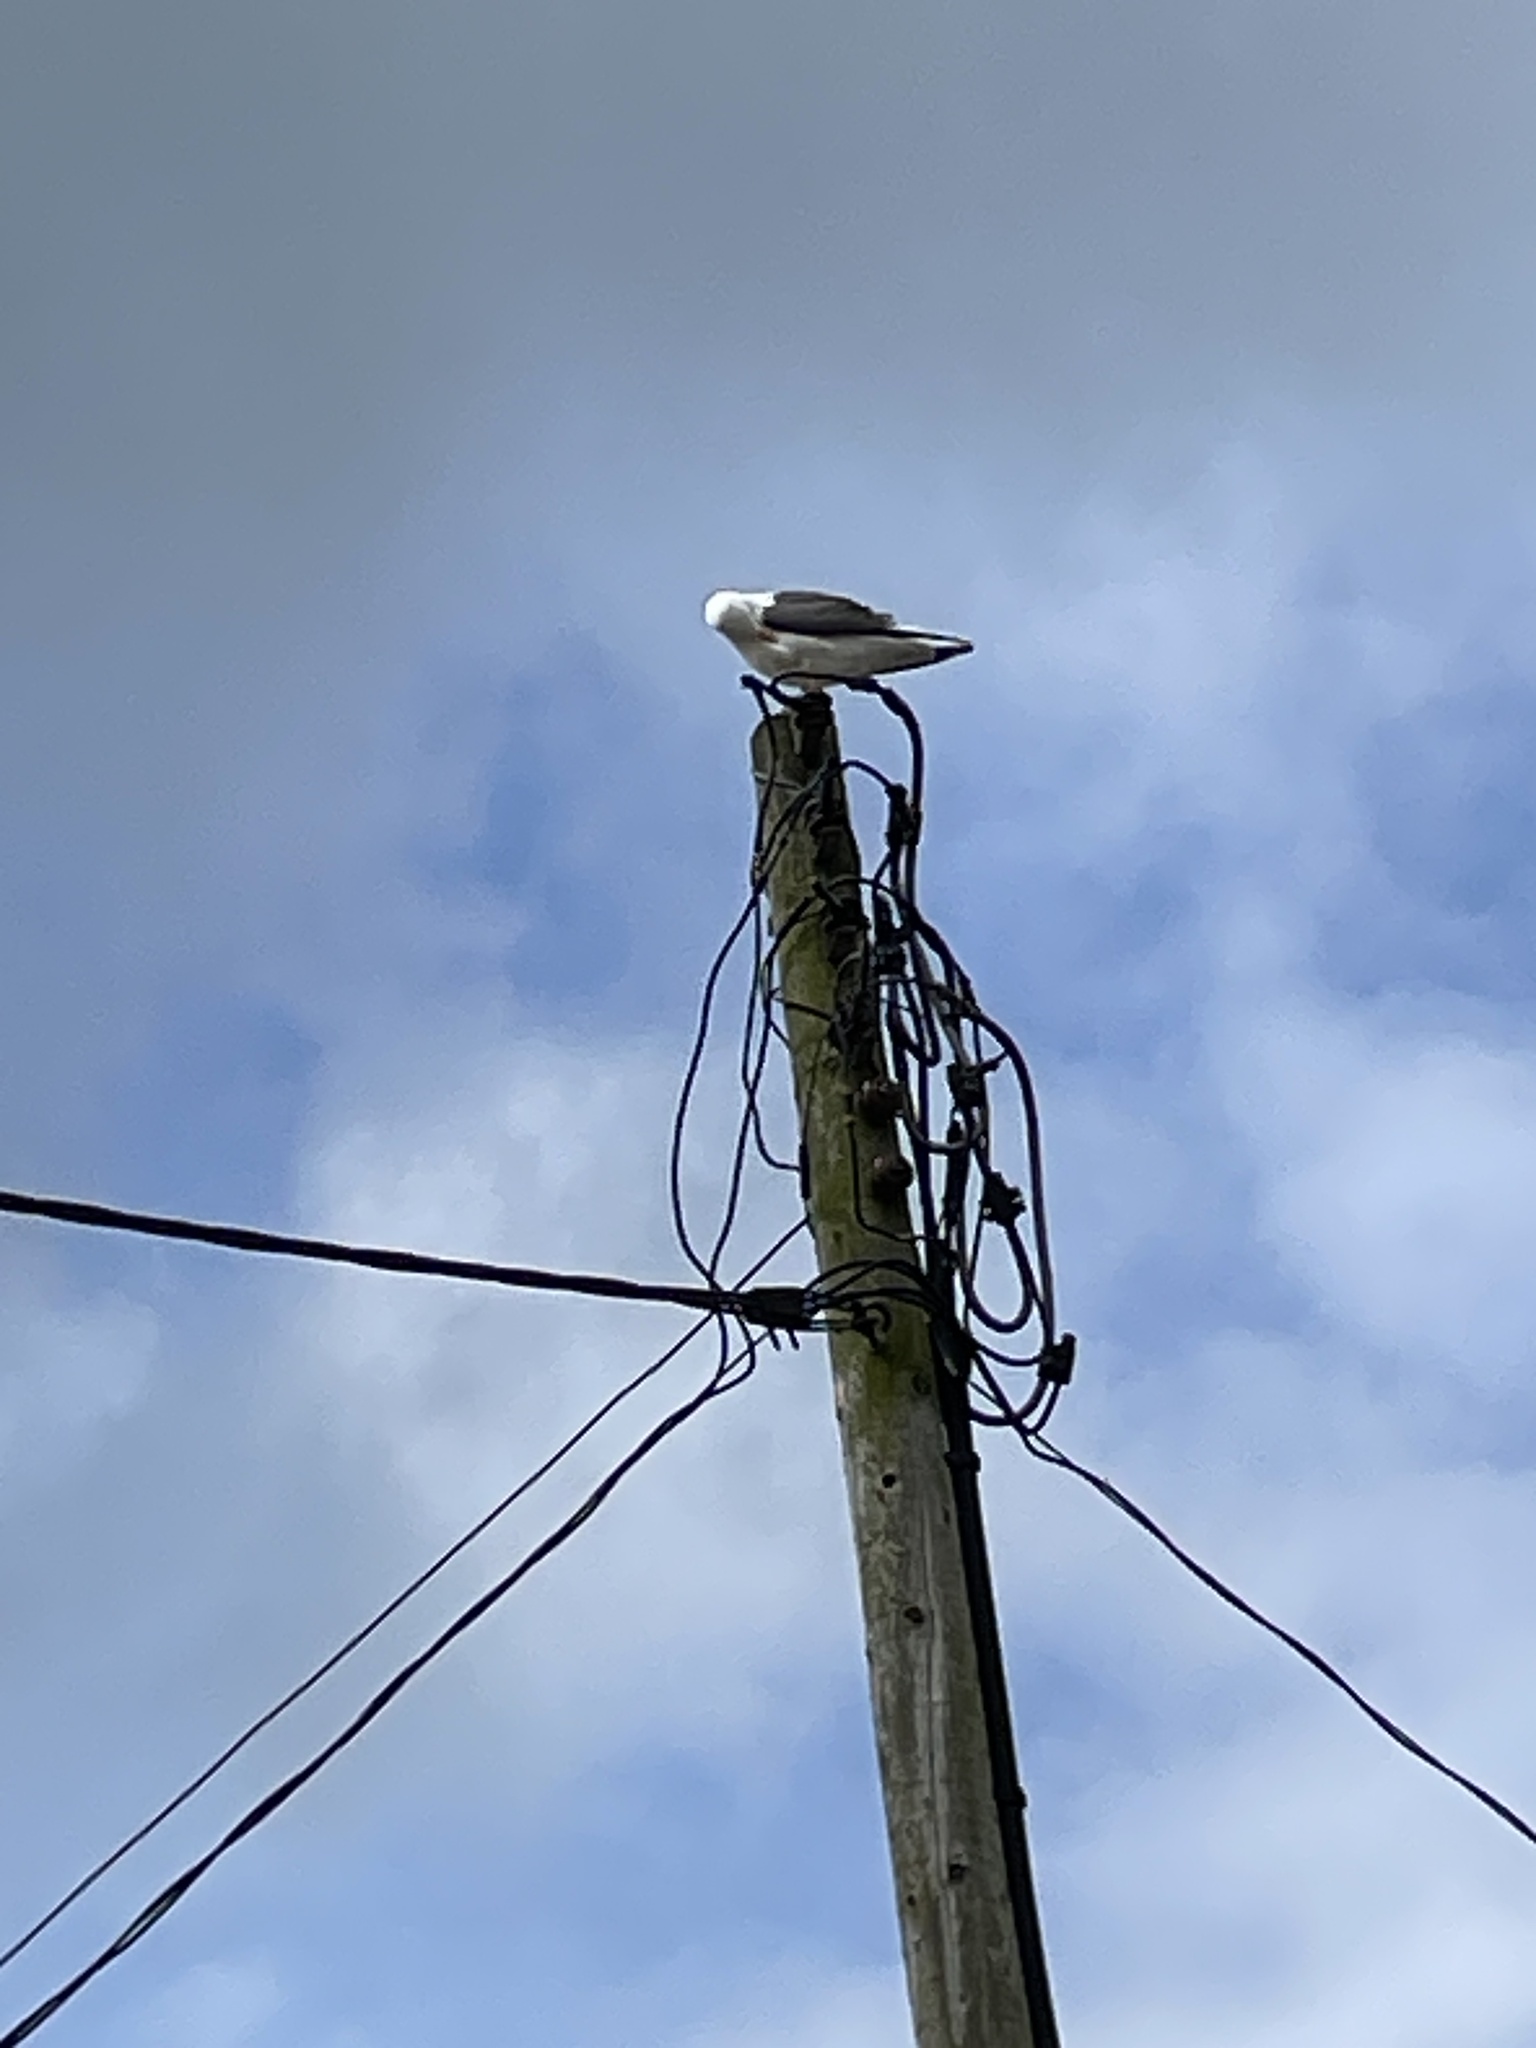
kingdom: Animalia
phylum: Chordata
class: Aves
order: Charadriiformes
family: Laridae
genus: Larus
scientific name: Larus fuscus
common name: Lesser black-backed gull
